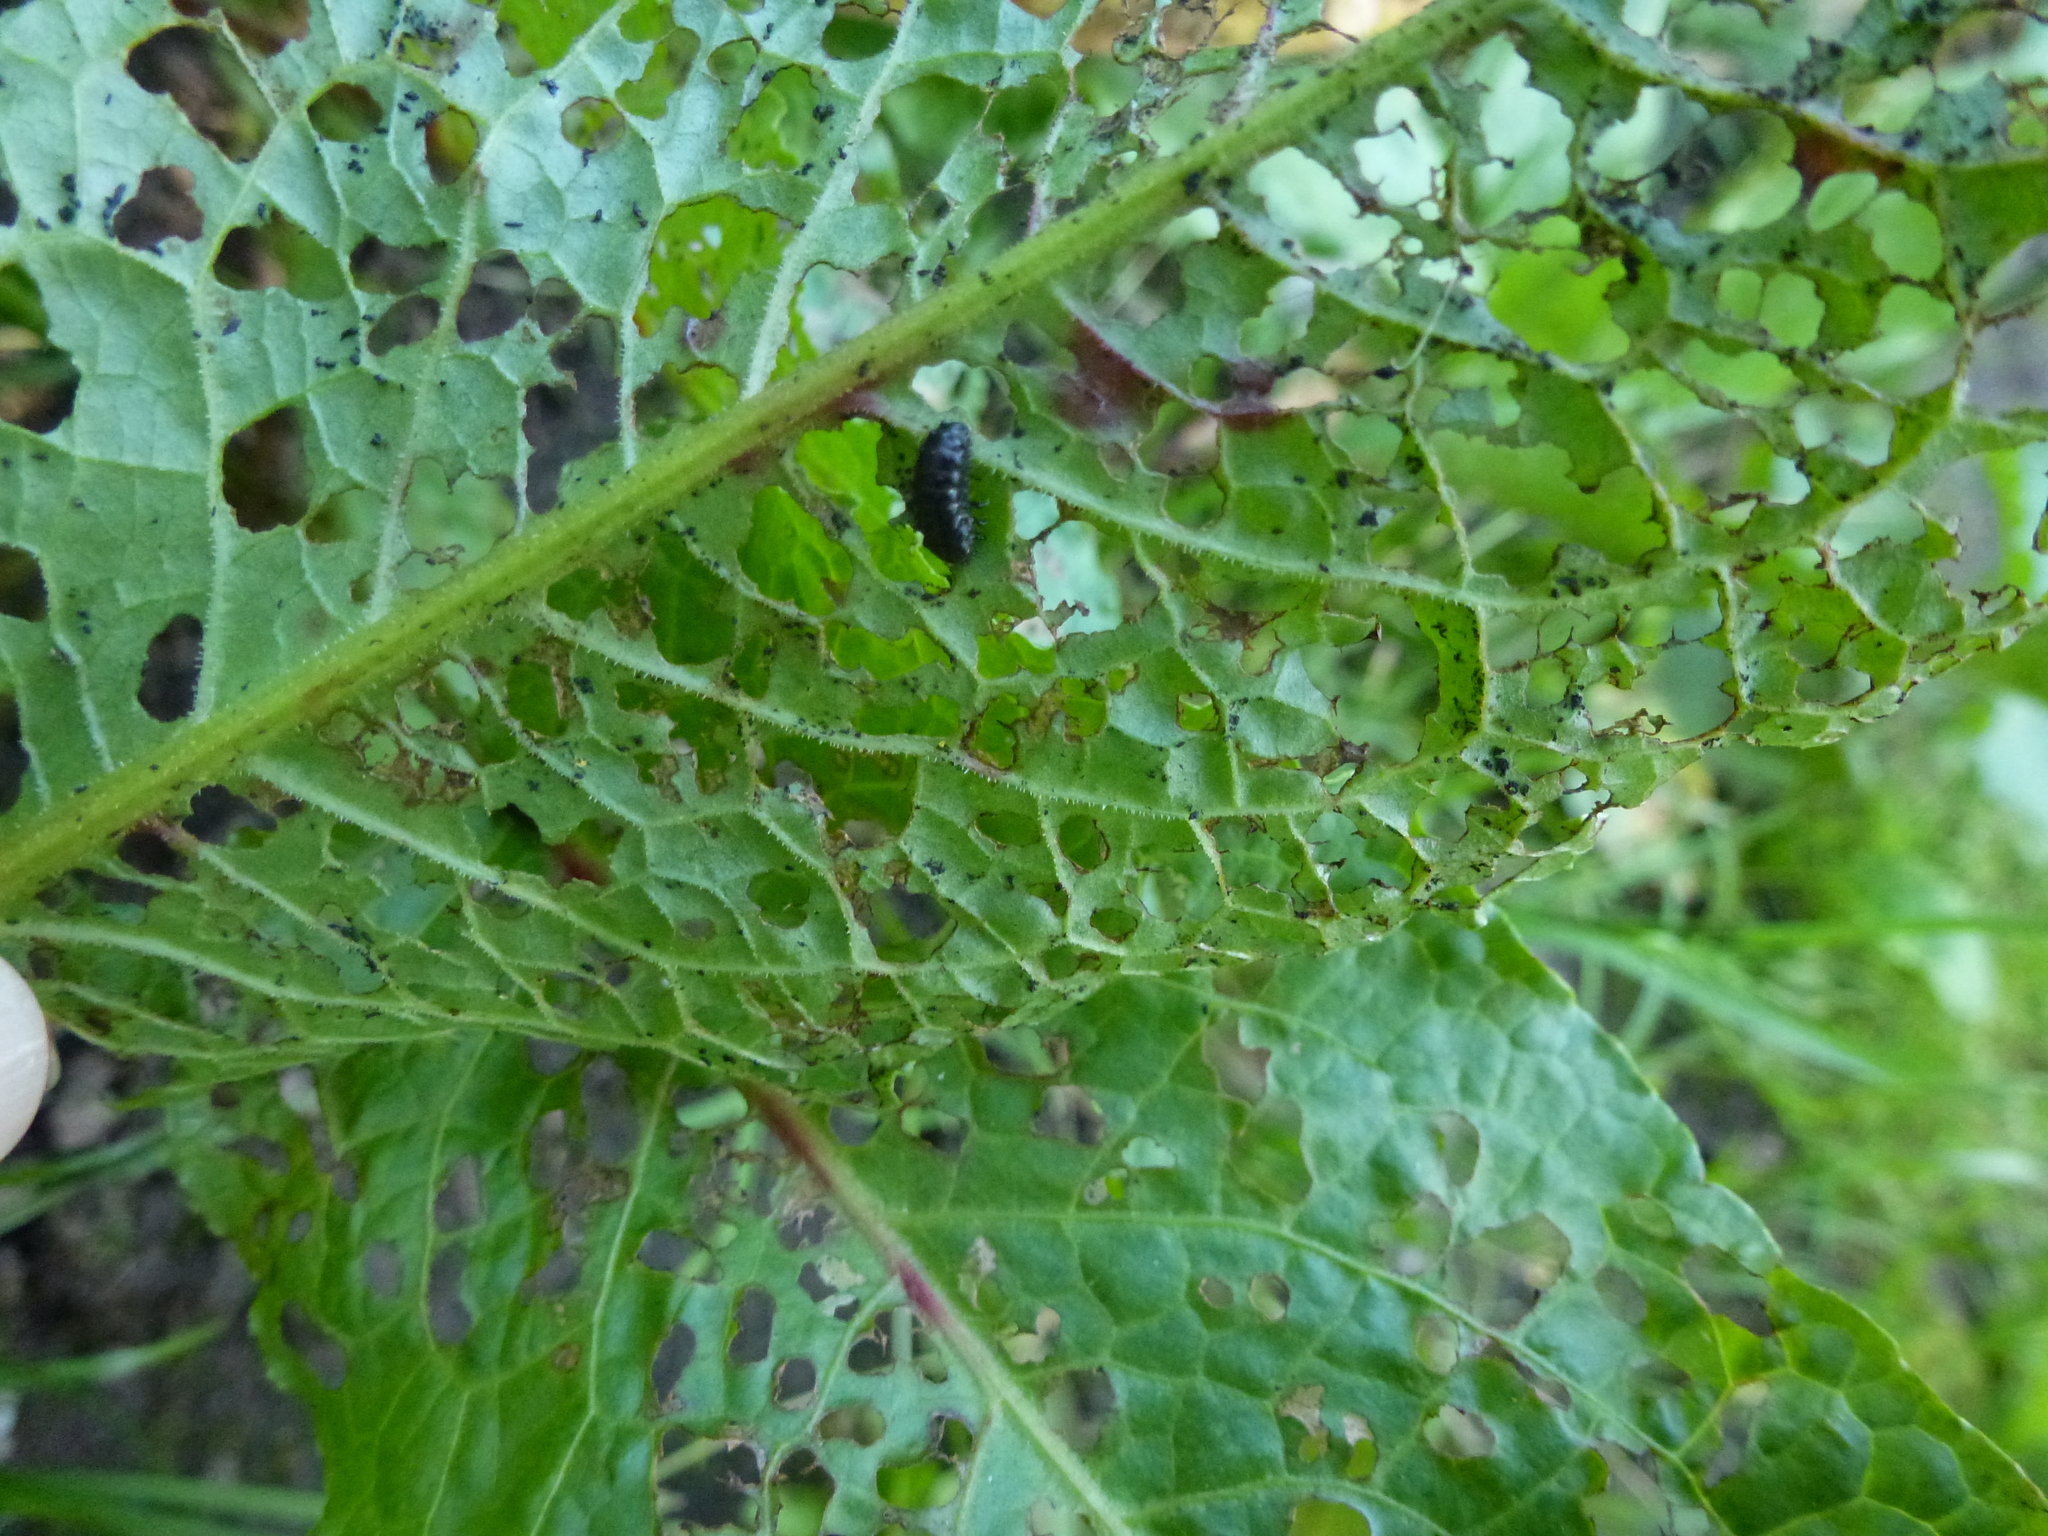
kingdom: Animalia
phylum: Arthropoda
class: Insecta
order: Coleoptera
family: Chrysomelidae
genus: Gastrophysa
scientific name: Gastrophysa viridula
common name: Green dock beetle
